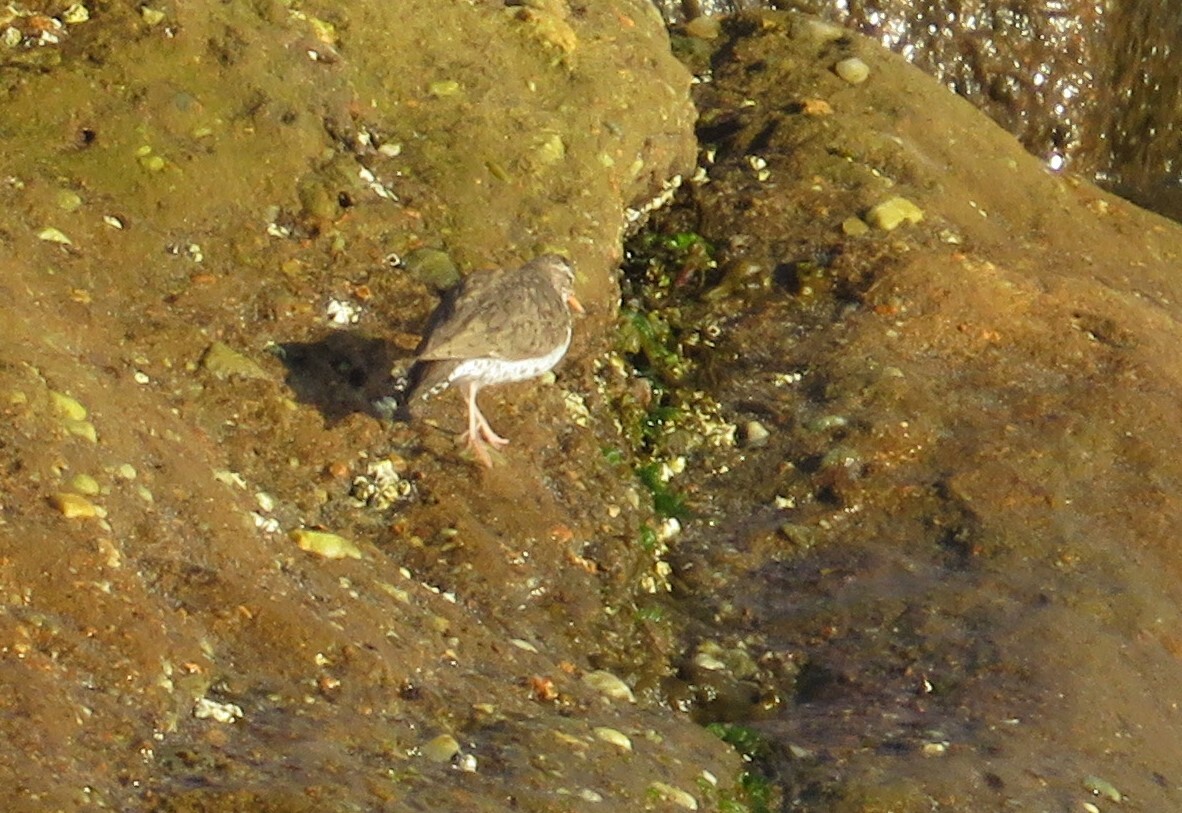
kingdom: Animalia
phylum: Chordata
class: Aves
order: Charadriiformes
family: Scolopacidae
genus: Actitis
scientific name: Actitis macularius
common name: Spotted sandpiper
